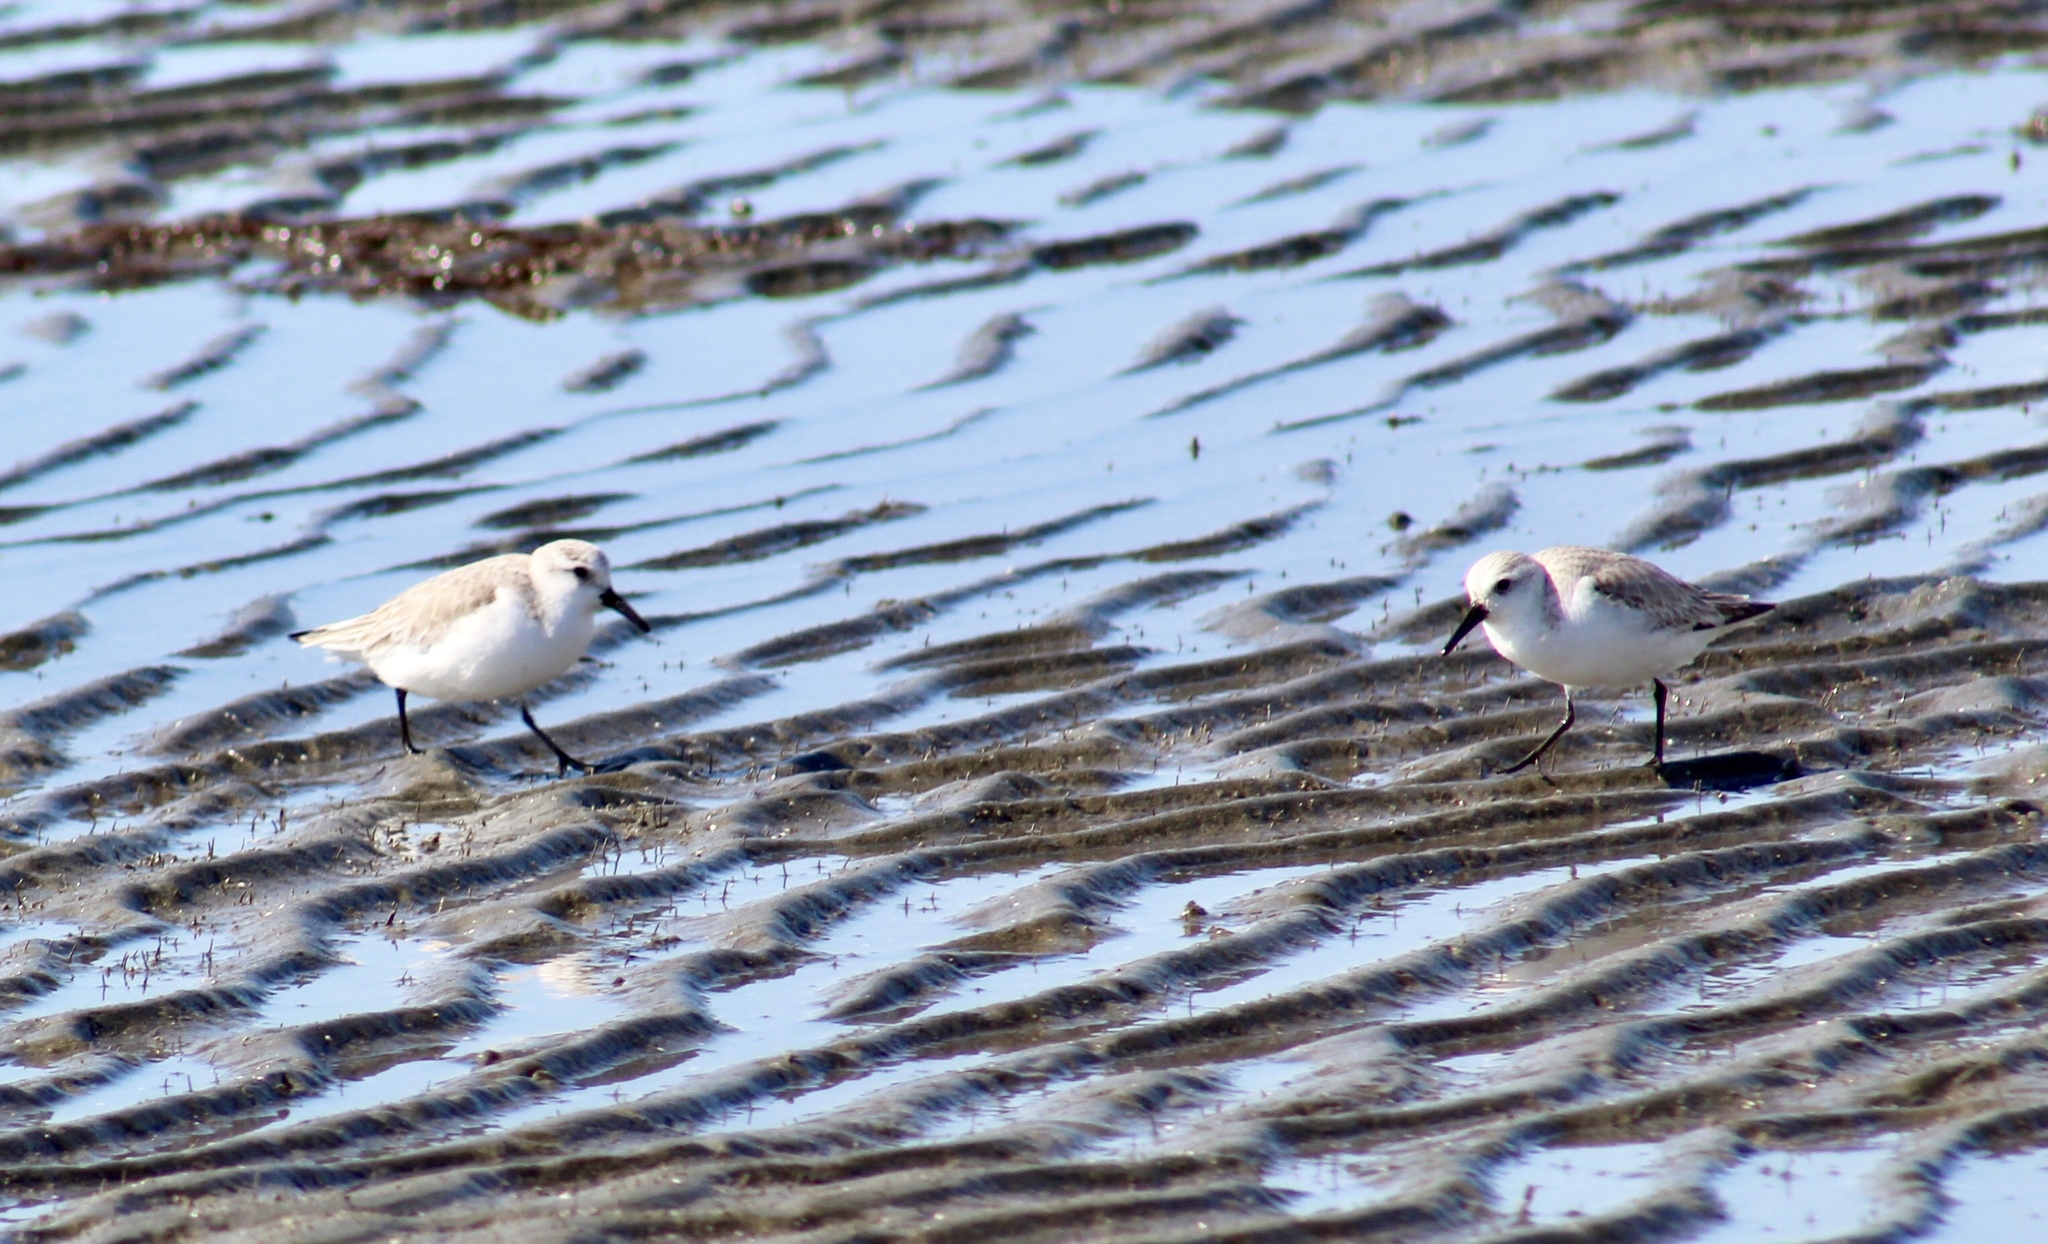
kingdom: Animalia
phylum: Chordata
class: Aves
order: Charadriiformes
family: Scolopacidae
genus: Calidris
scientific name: Calidris alba
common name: Sanderling
